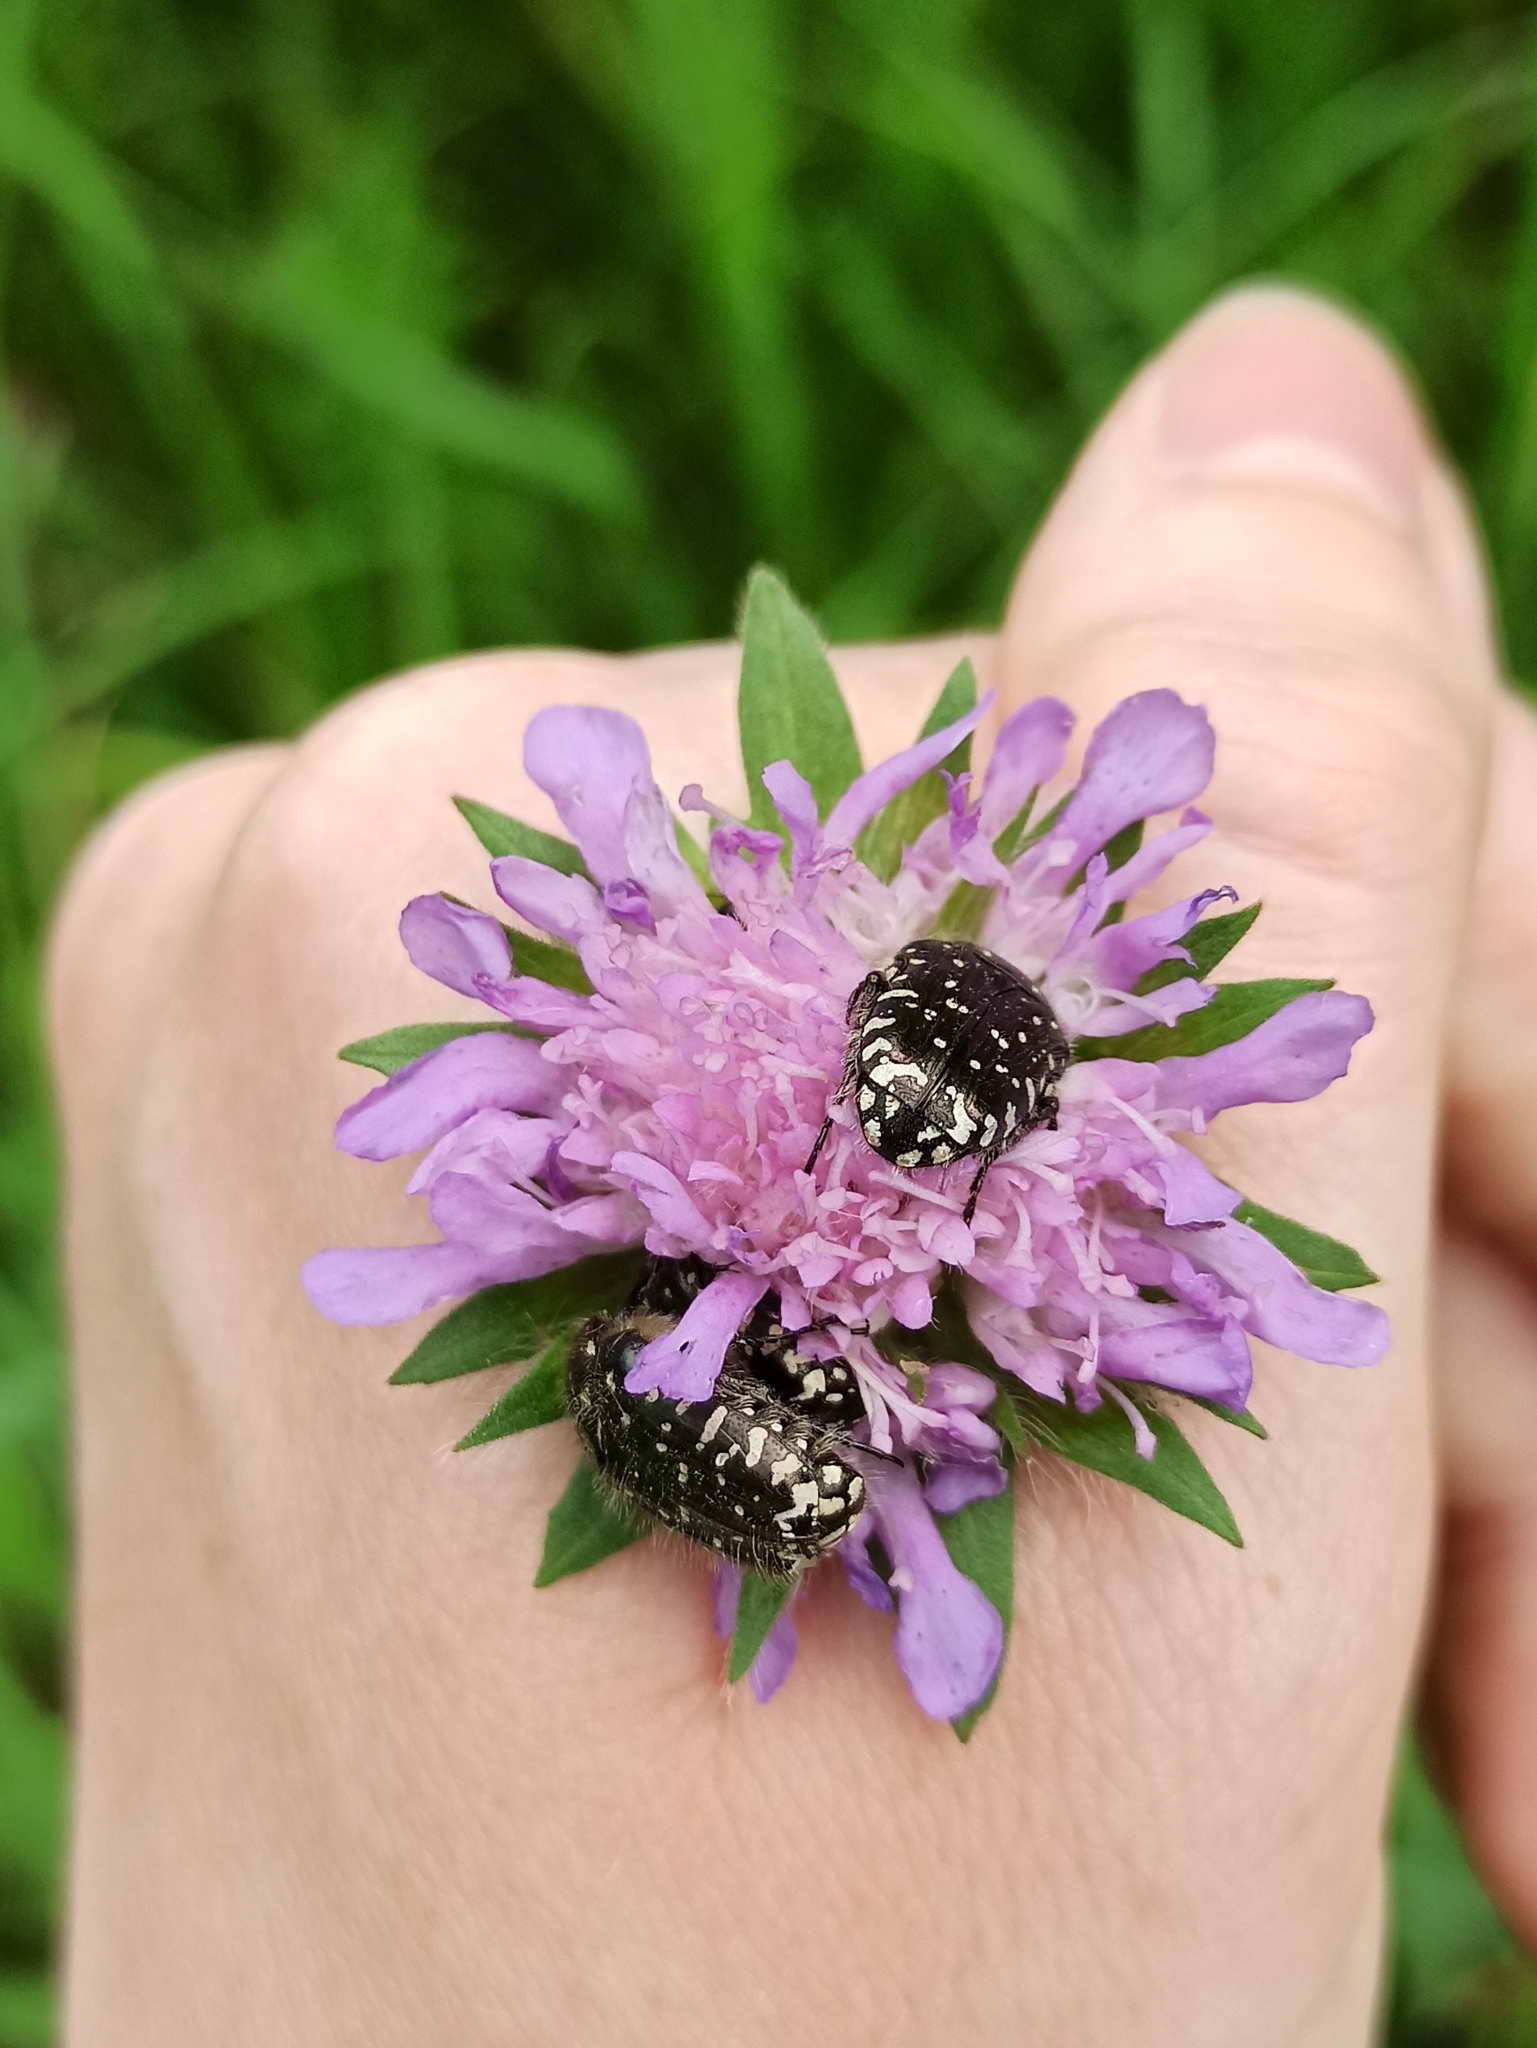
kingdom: Animalia
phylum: Arthropoda
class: Insecta
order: Coleoptera
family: Scarabaeidae
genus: Oxythyrea
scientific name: Oxythyrea funesta
